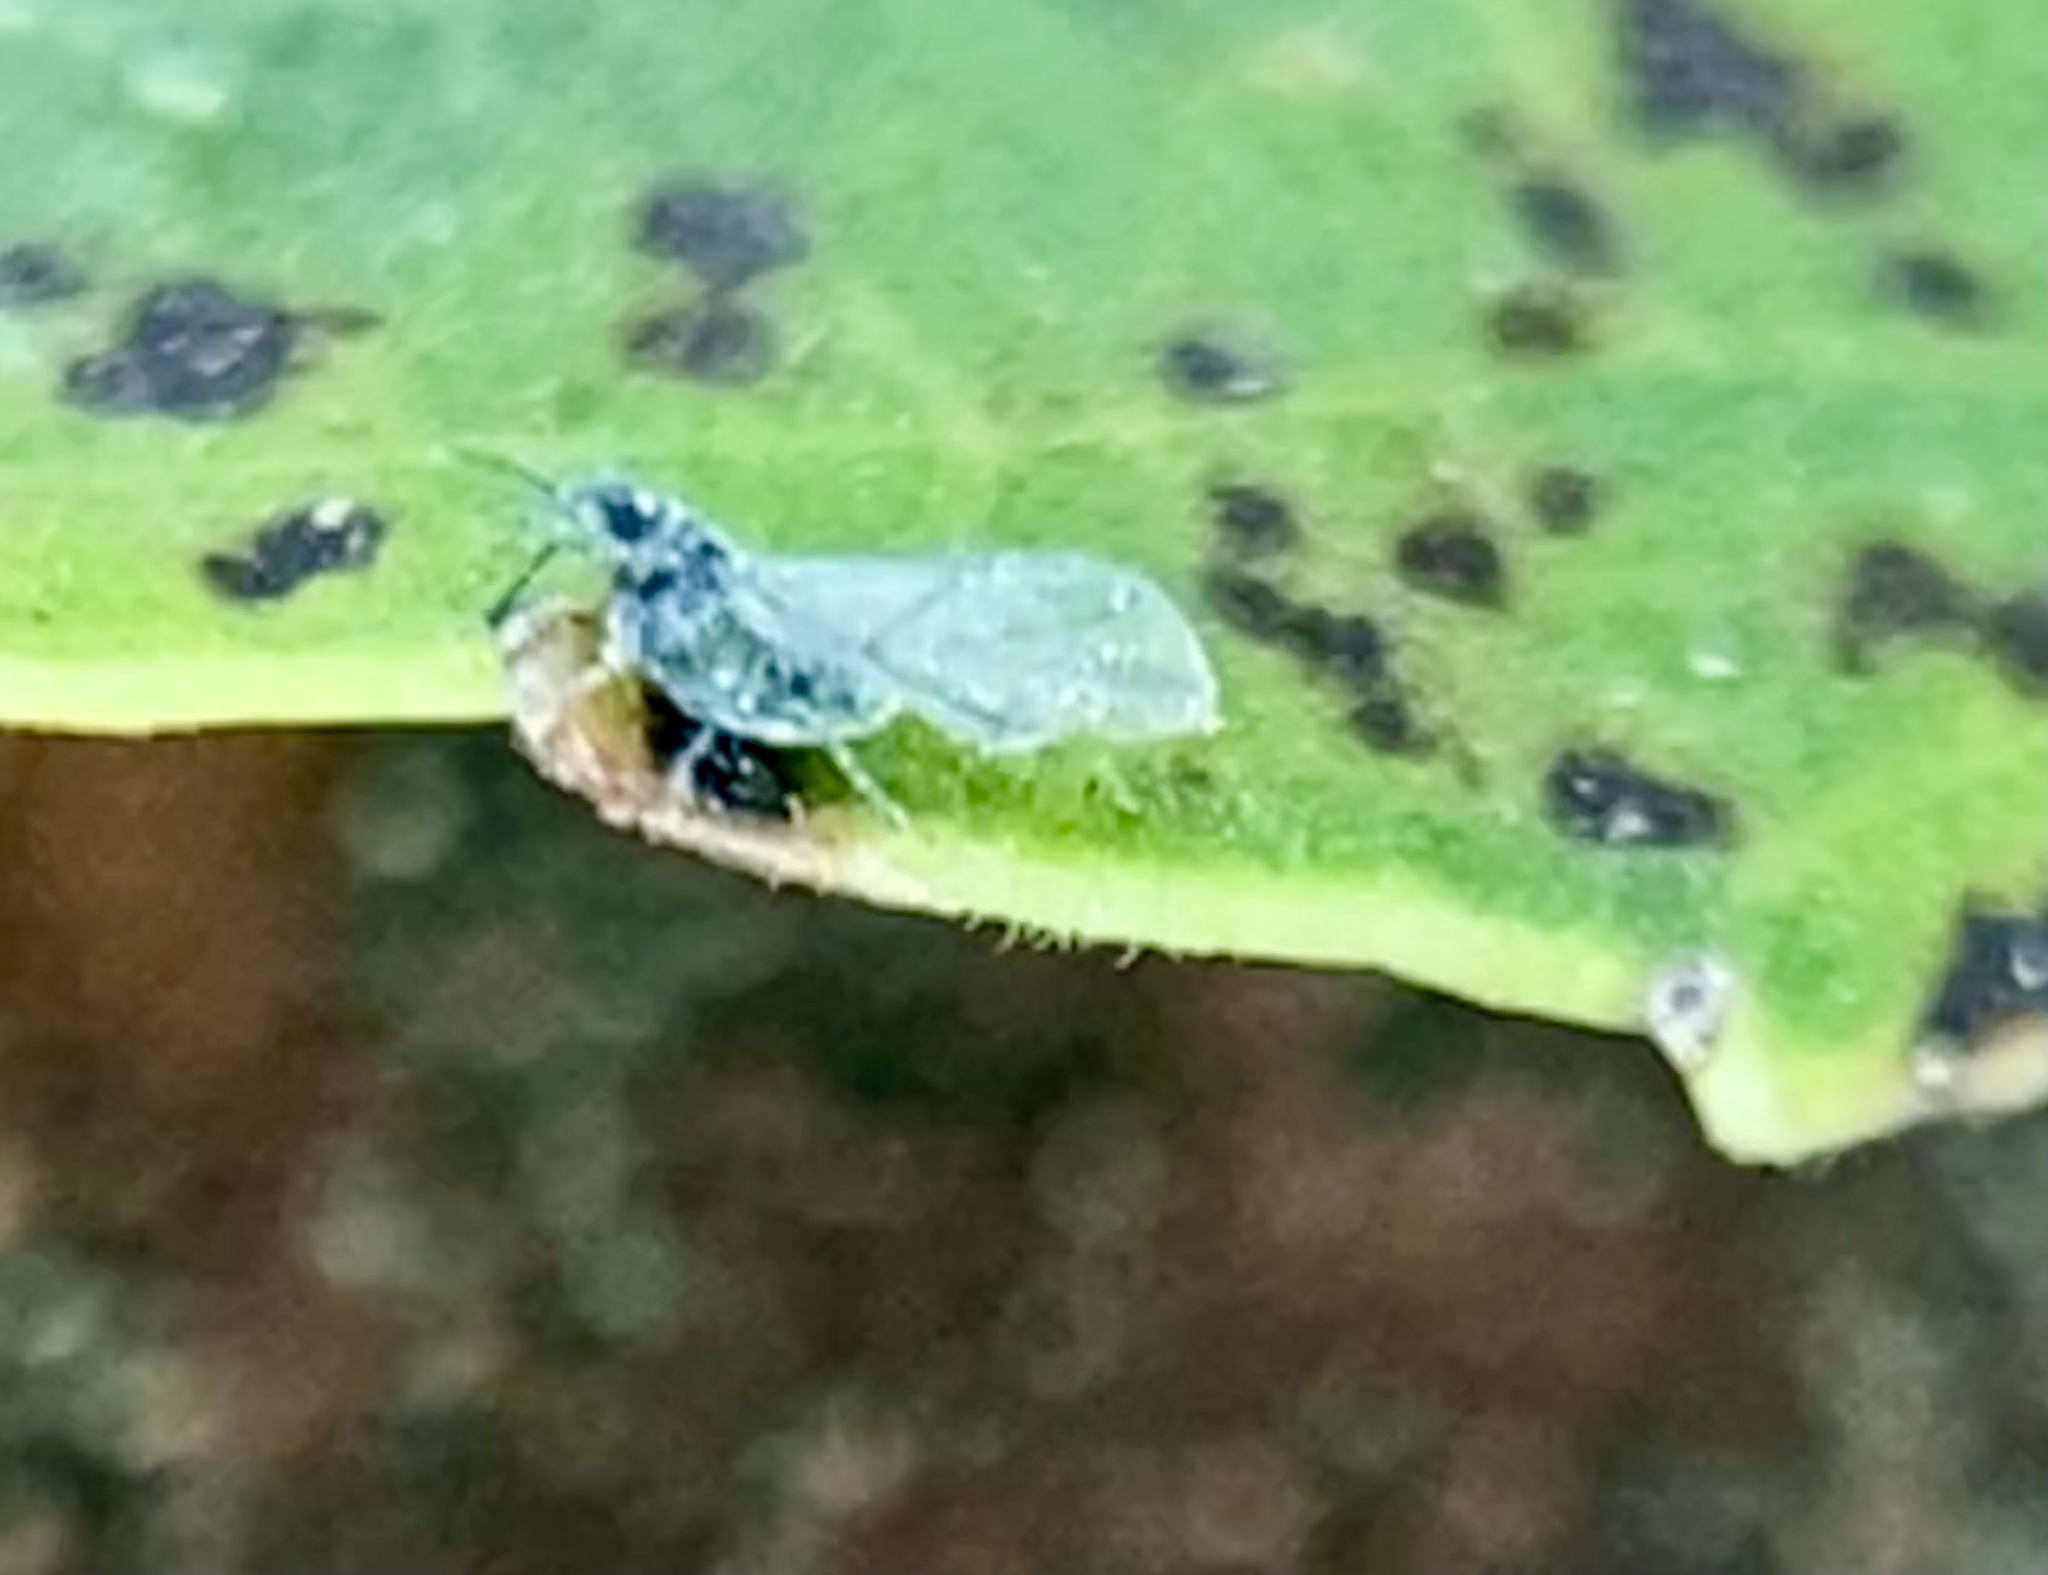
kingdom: Animalia
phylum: Arthropoda
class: Insecta
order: Hemiptera
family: Aphididae
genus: Pemphigus
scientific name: Pemphigus populitransversus
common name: Poplar petiolegall aphid
